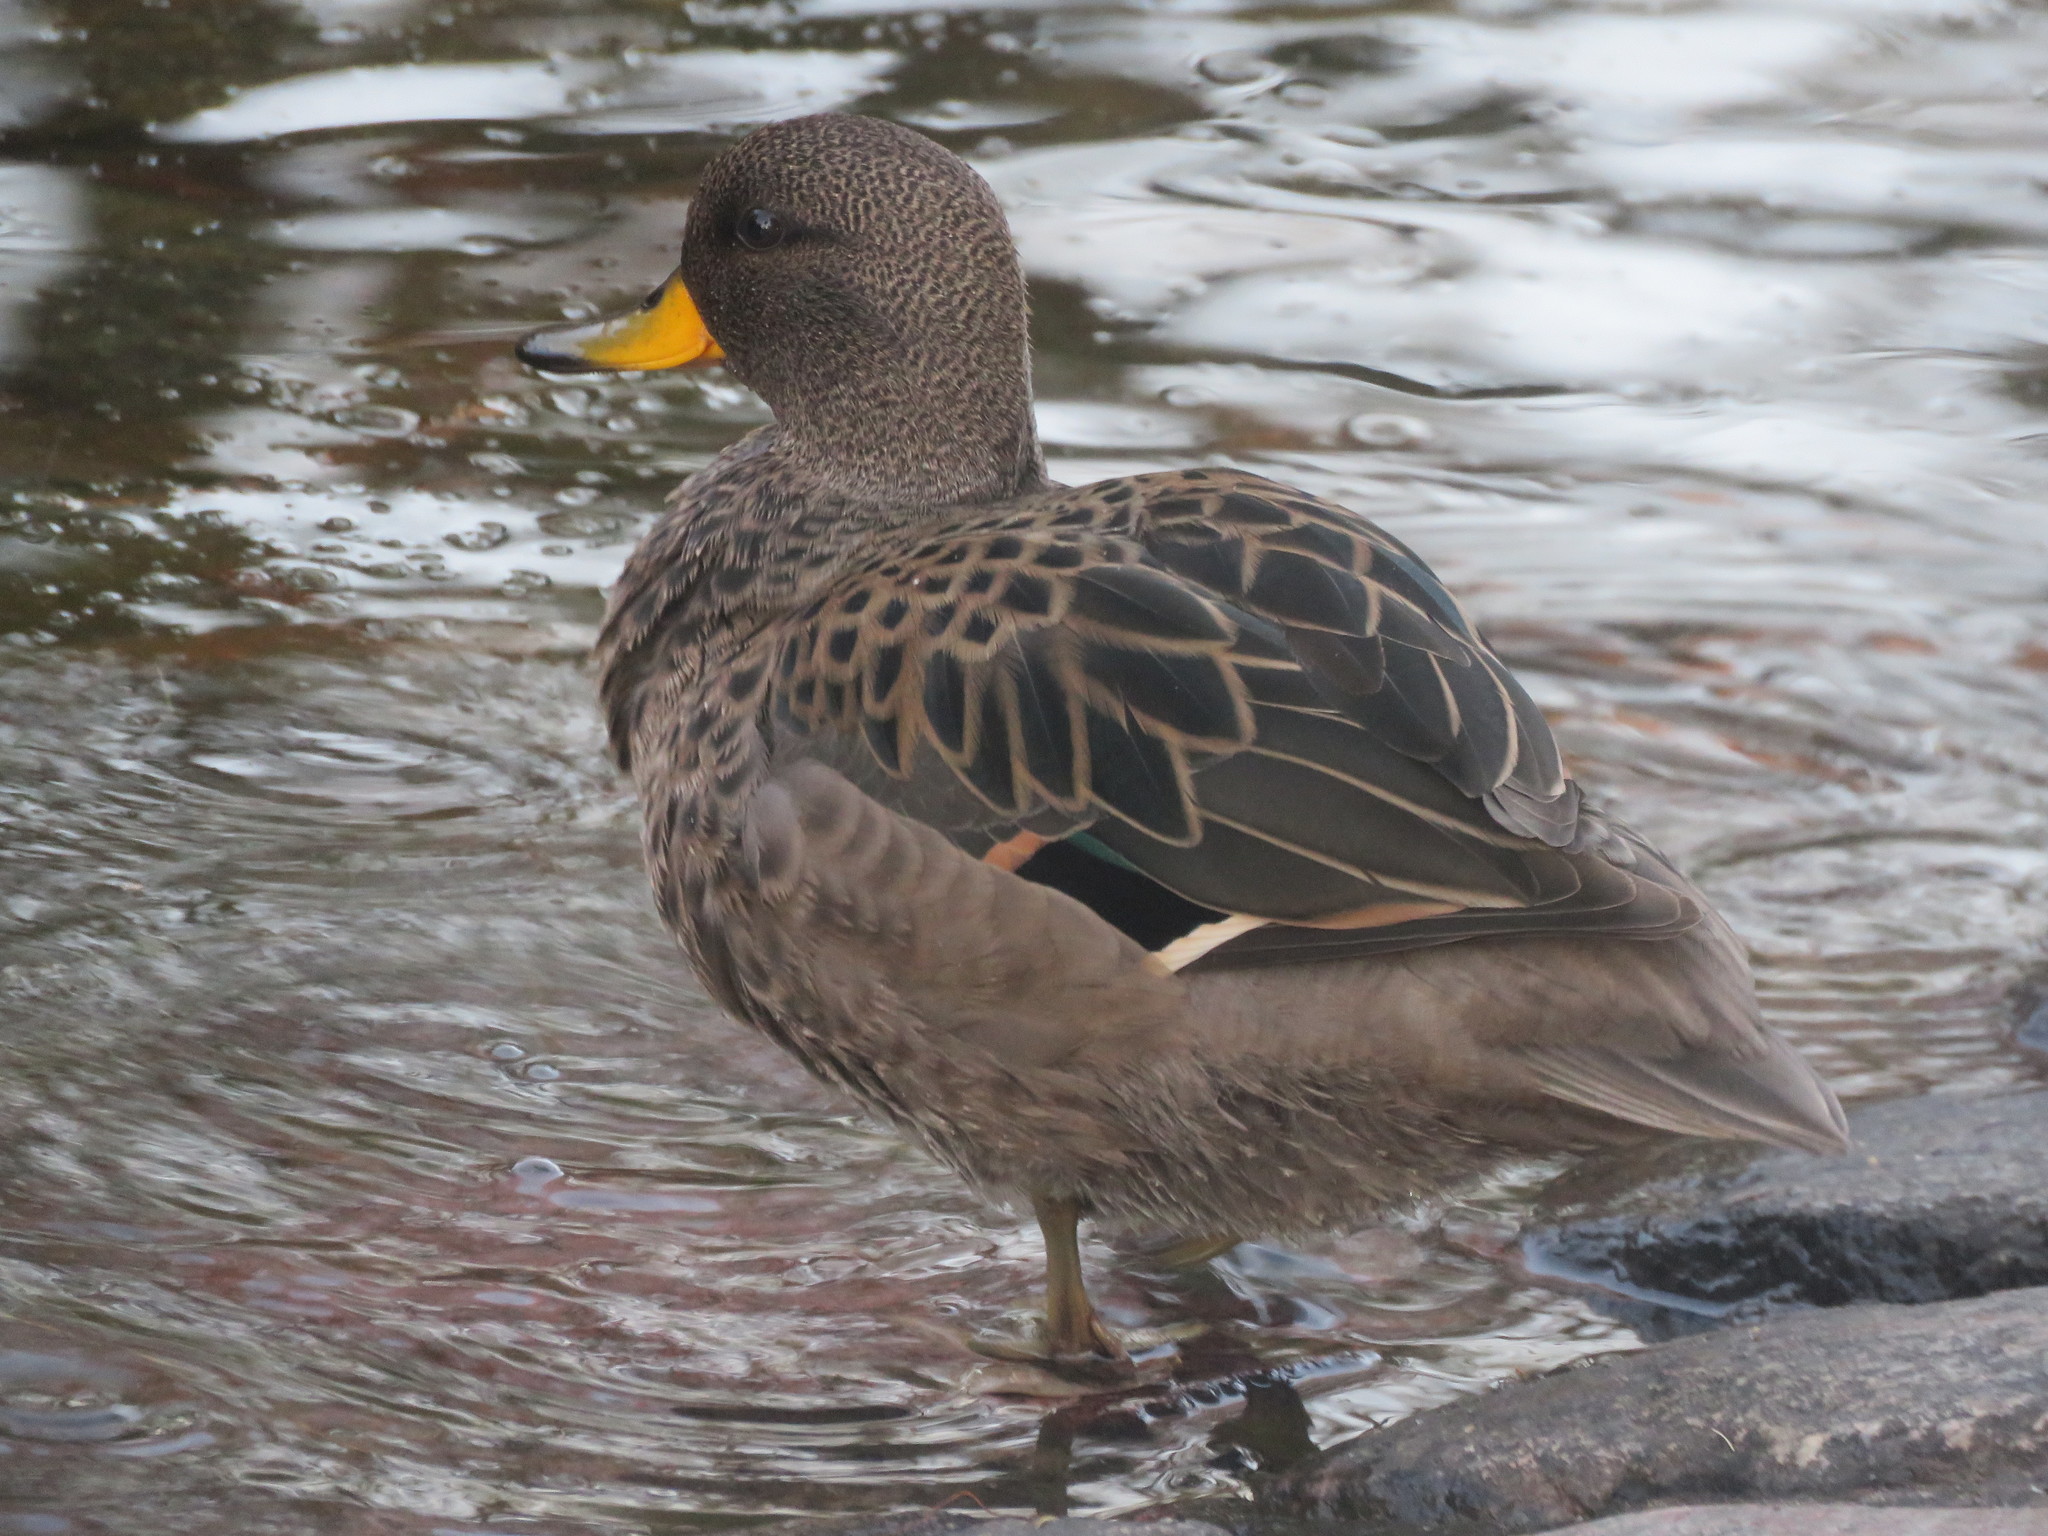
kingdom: Animalia
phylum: Chordata
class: Aves
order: Anseriformes
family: Anatidae
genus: Anas
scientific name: Anas flavirostris
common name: Yellow-billed teal
